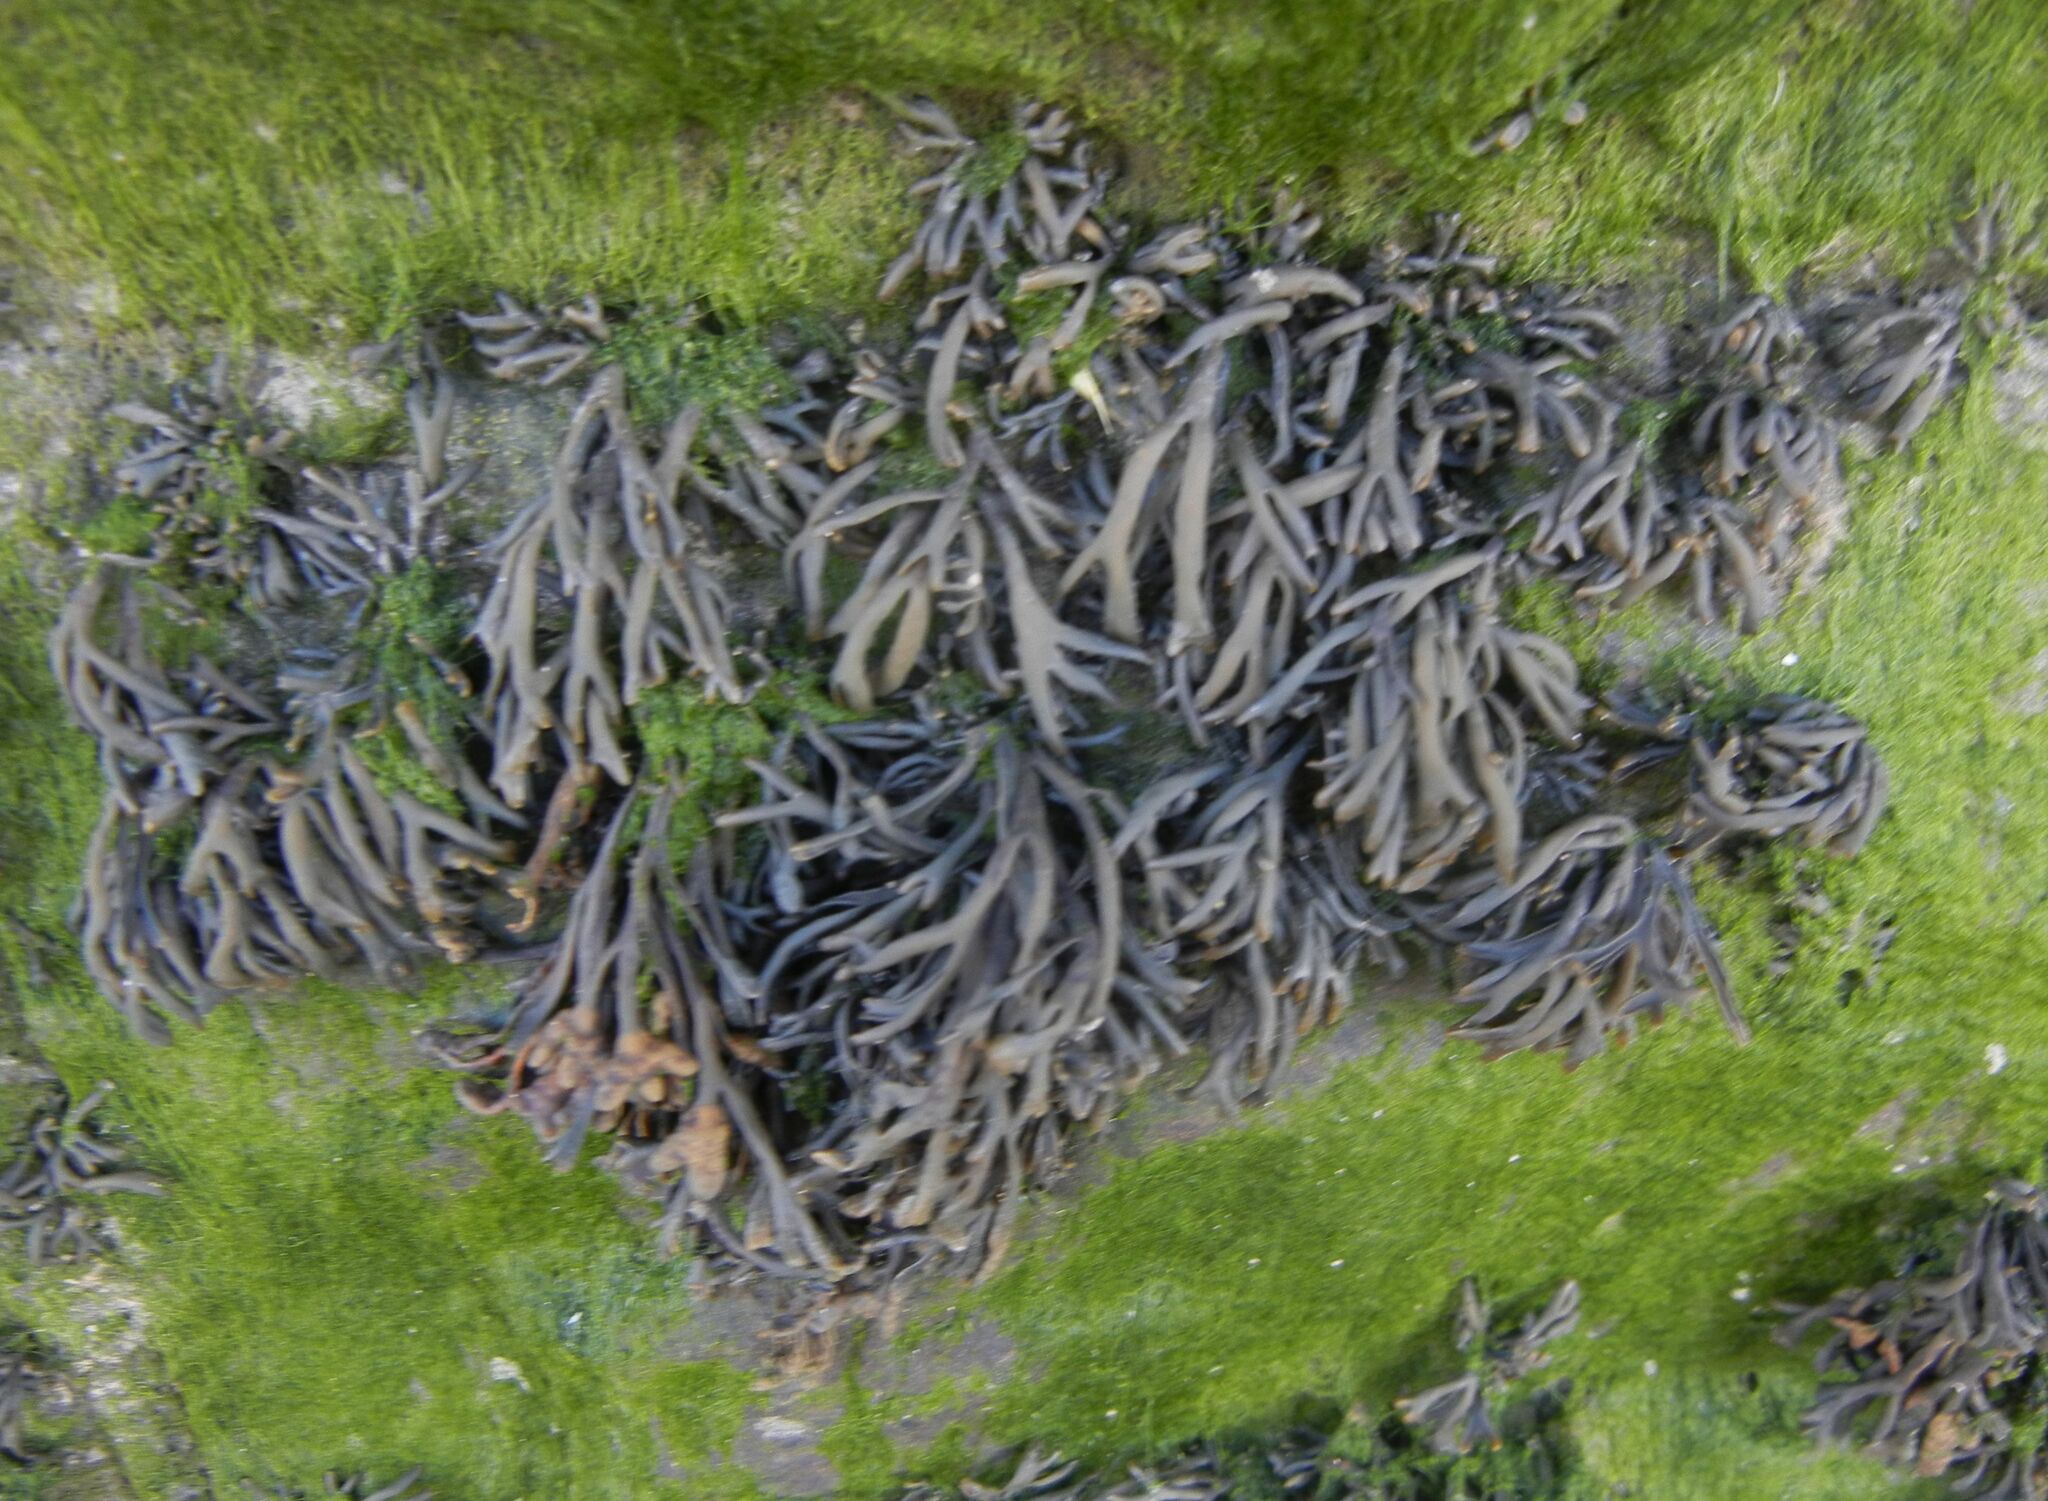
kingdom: Chromista
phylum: Ochrophyta
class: Phaeophyceae
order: Fucales
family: Fucaceae
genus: Pelvetia
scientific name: Pelvetia canaliculata
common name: Channelled wrack
